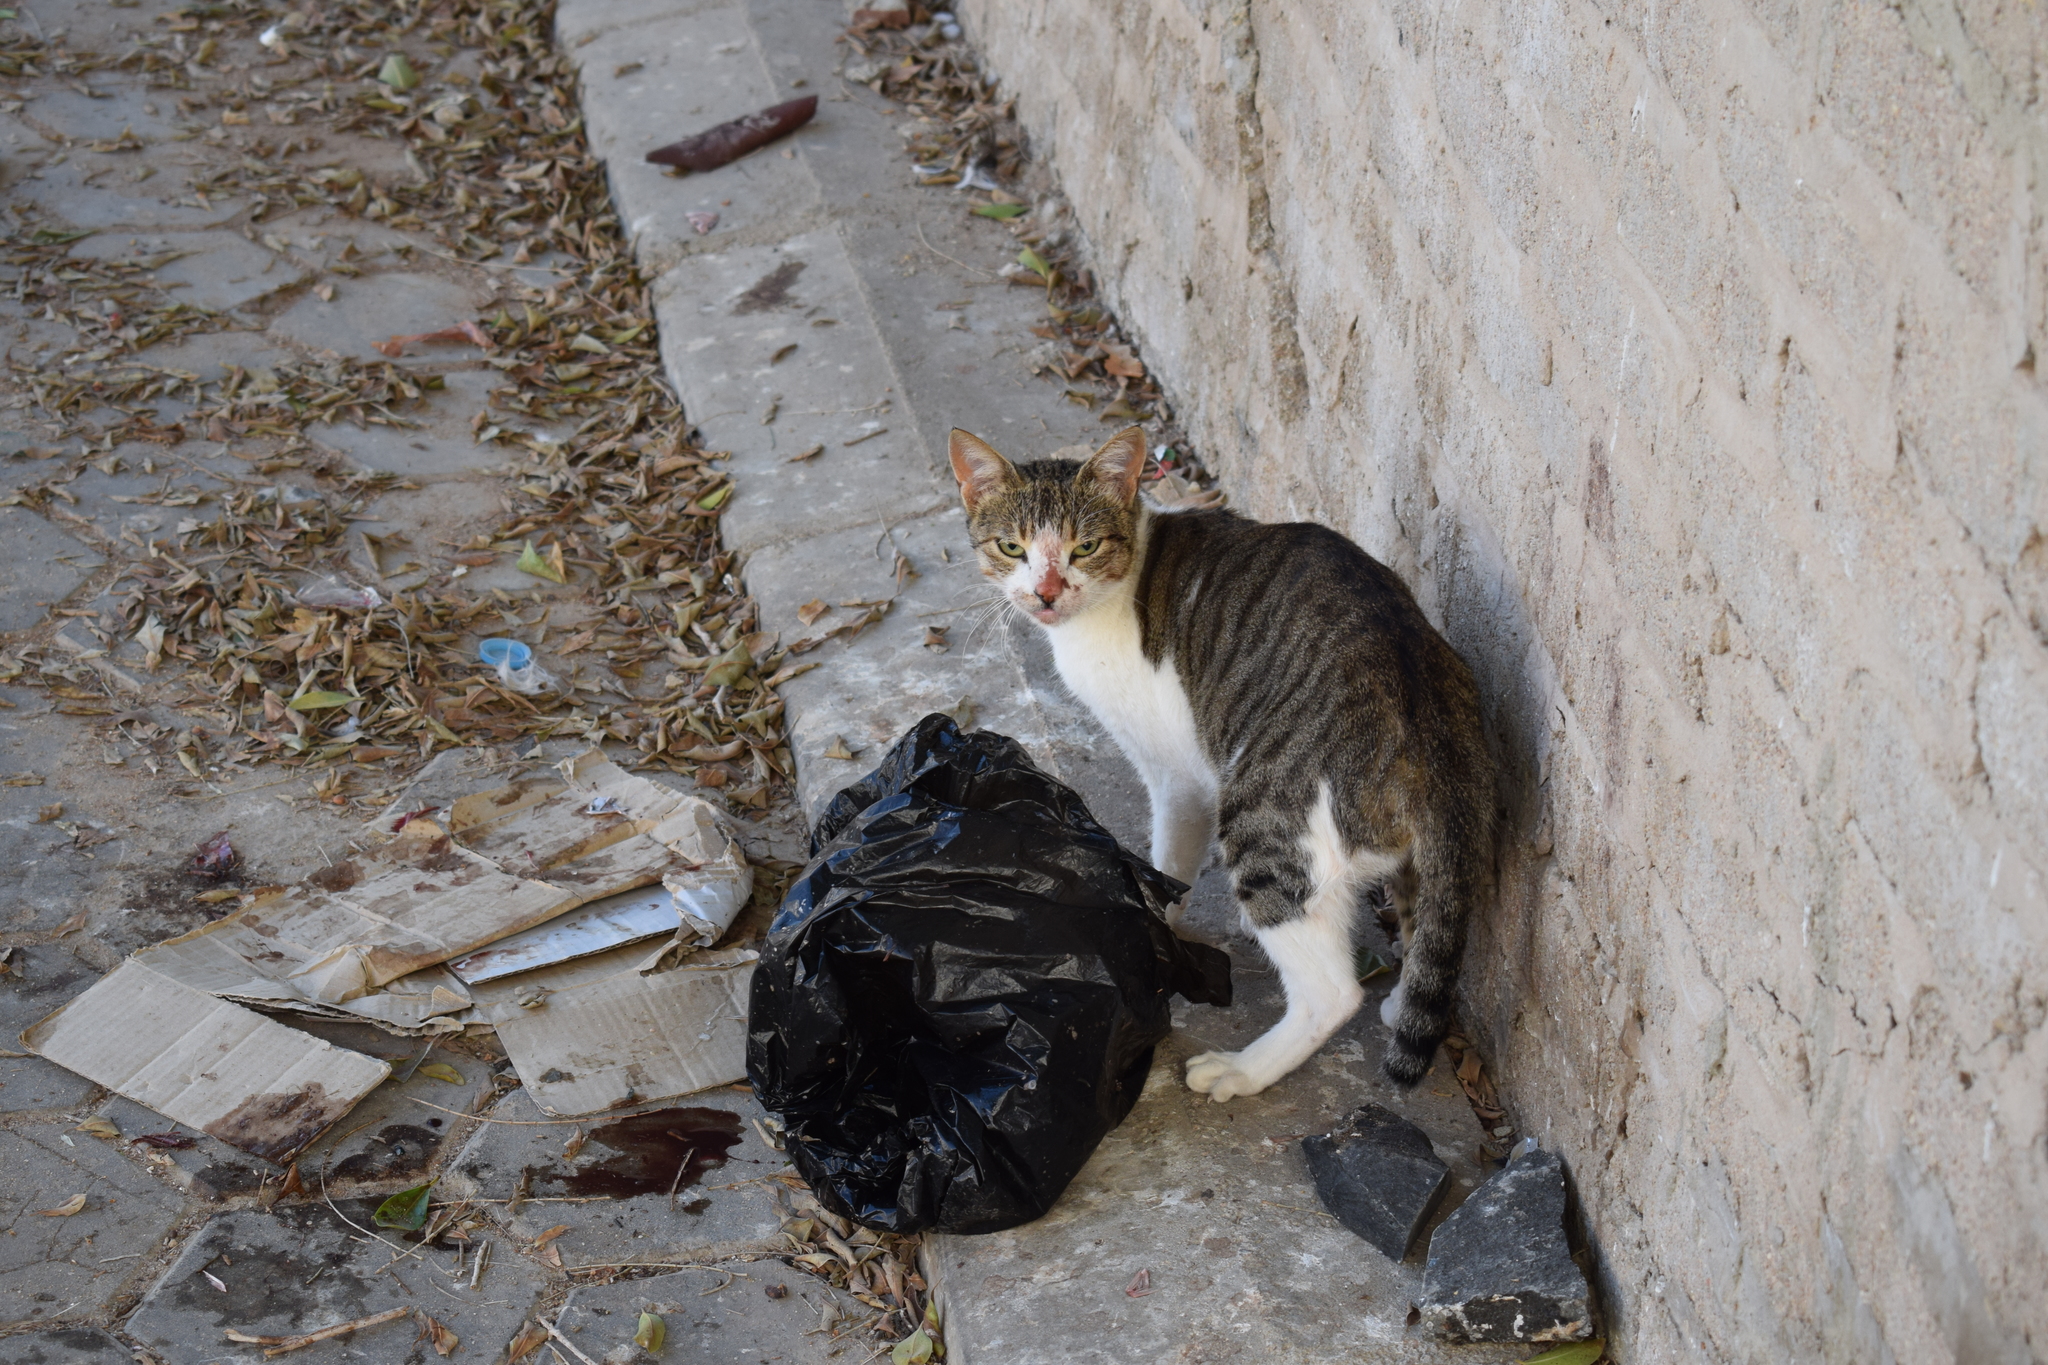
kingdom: Animalia
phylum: Chordata
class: Mammalia
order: Carnivora
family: Felidae
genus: Felis
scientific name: Felis catus
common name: Domestic cat
